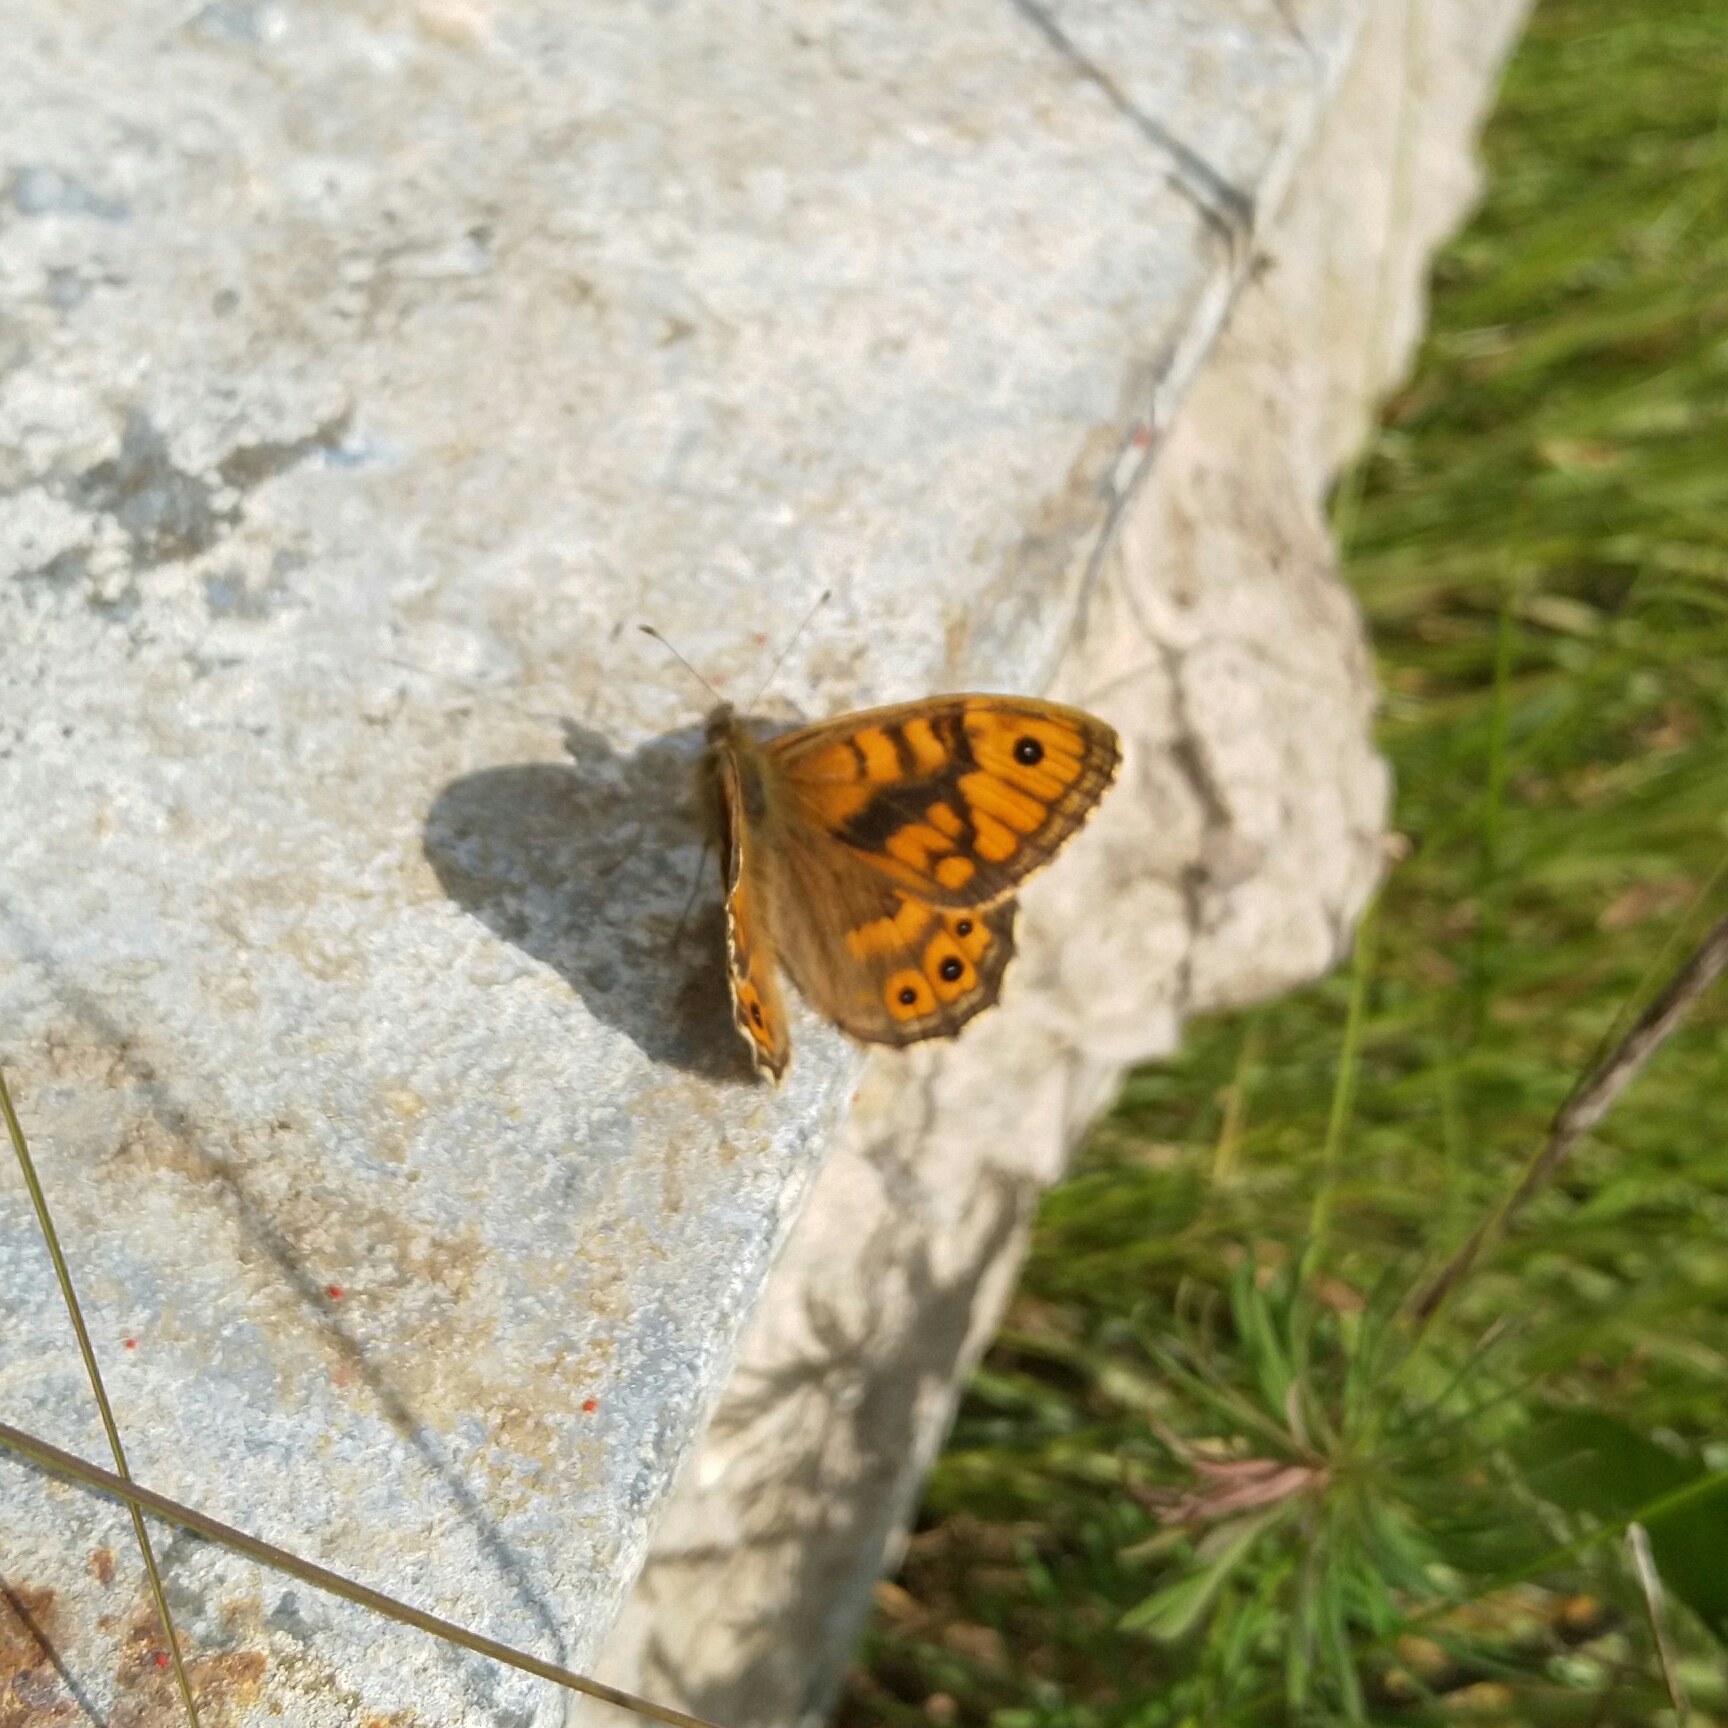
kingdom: Animalia
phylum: Arthropoda
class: Insecta
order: Lepidoptera
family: Nymphalidae
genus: Pararge
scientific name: Pararge Lasiommata megera
